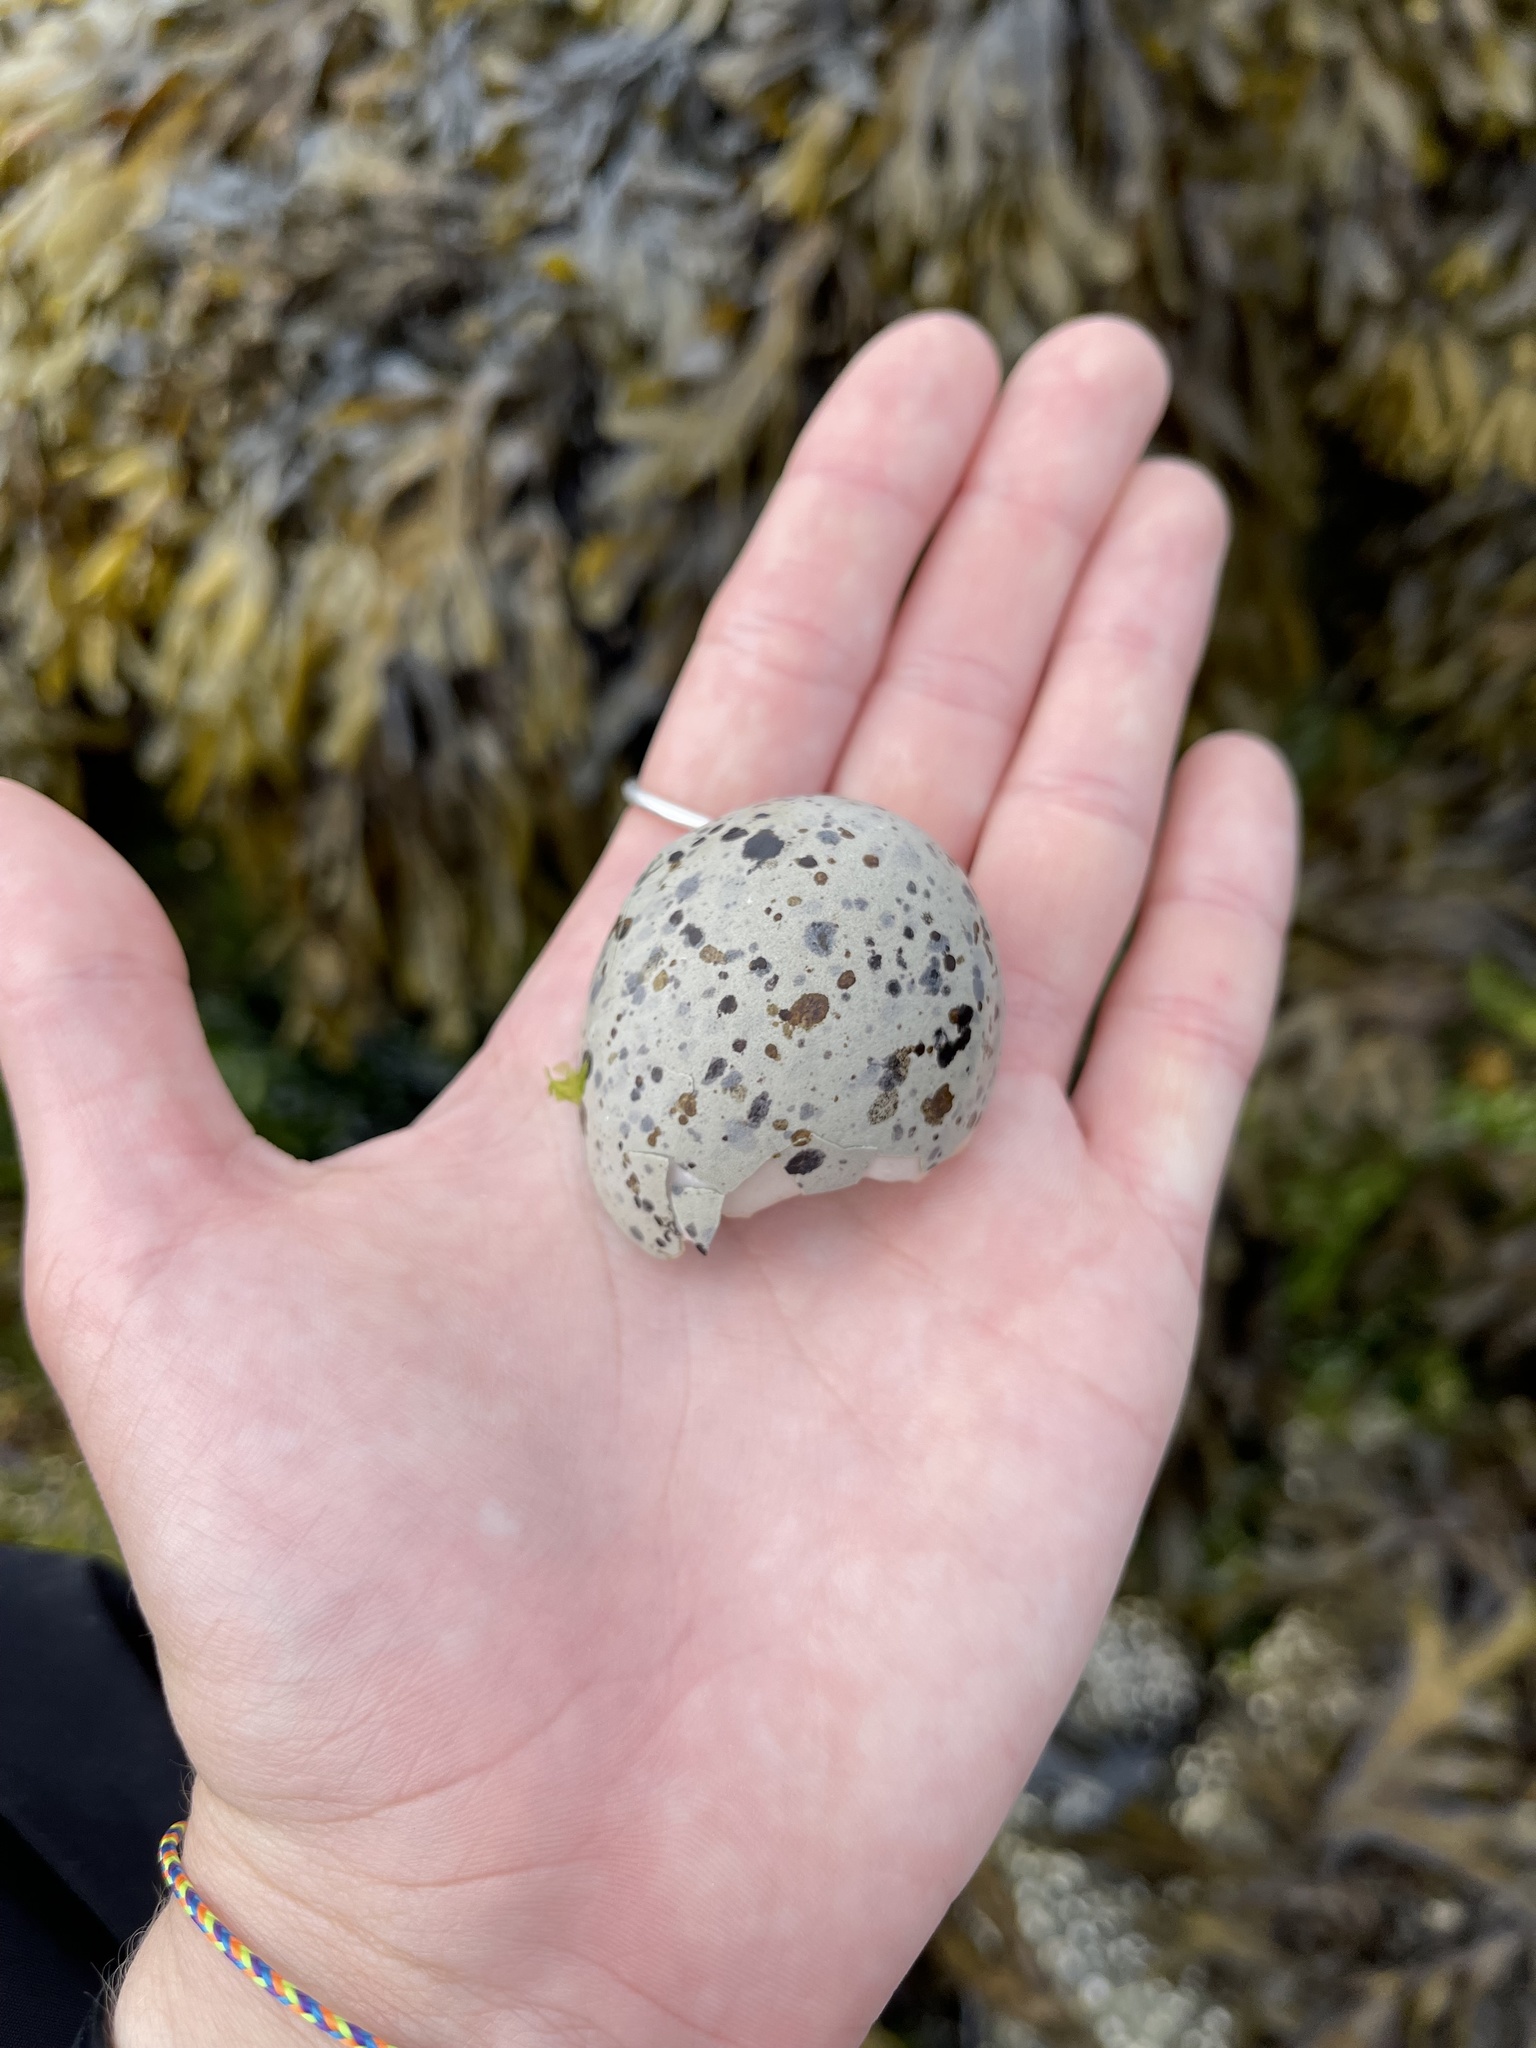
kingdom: Animalia
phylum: Chordata
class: Aves
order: Charadriiformes
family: Haematopodidae
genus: Haematopus
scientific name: Haematopus bachmani
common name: Black oystercatcher
